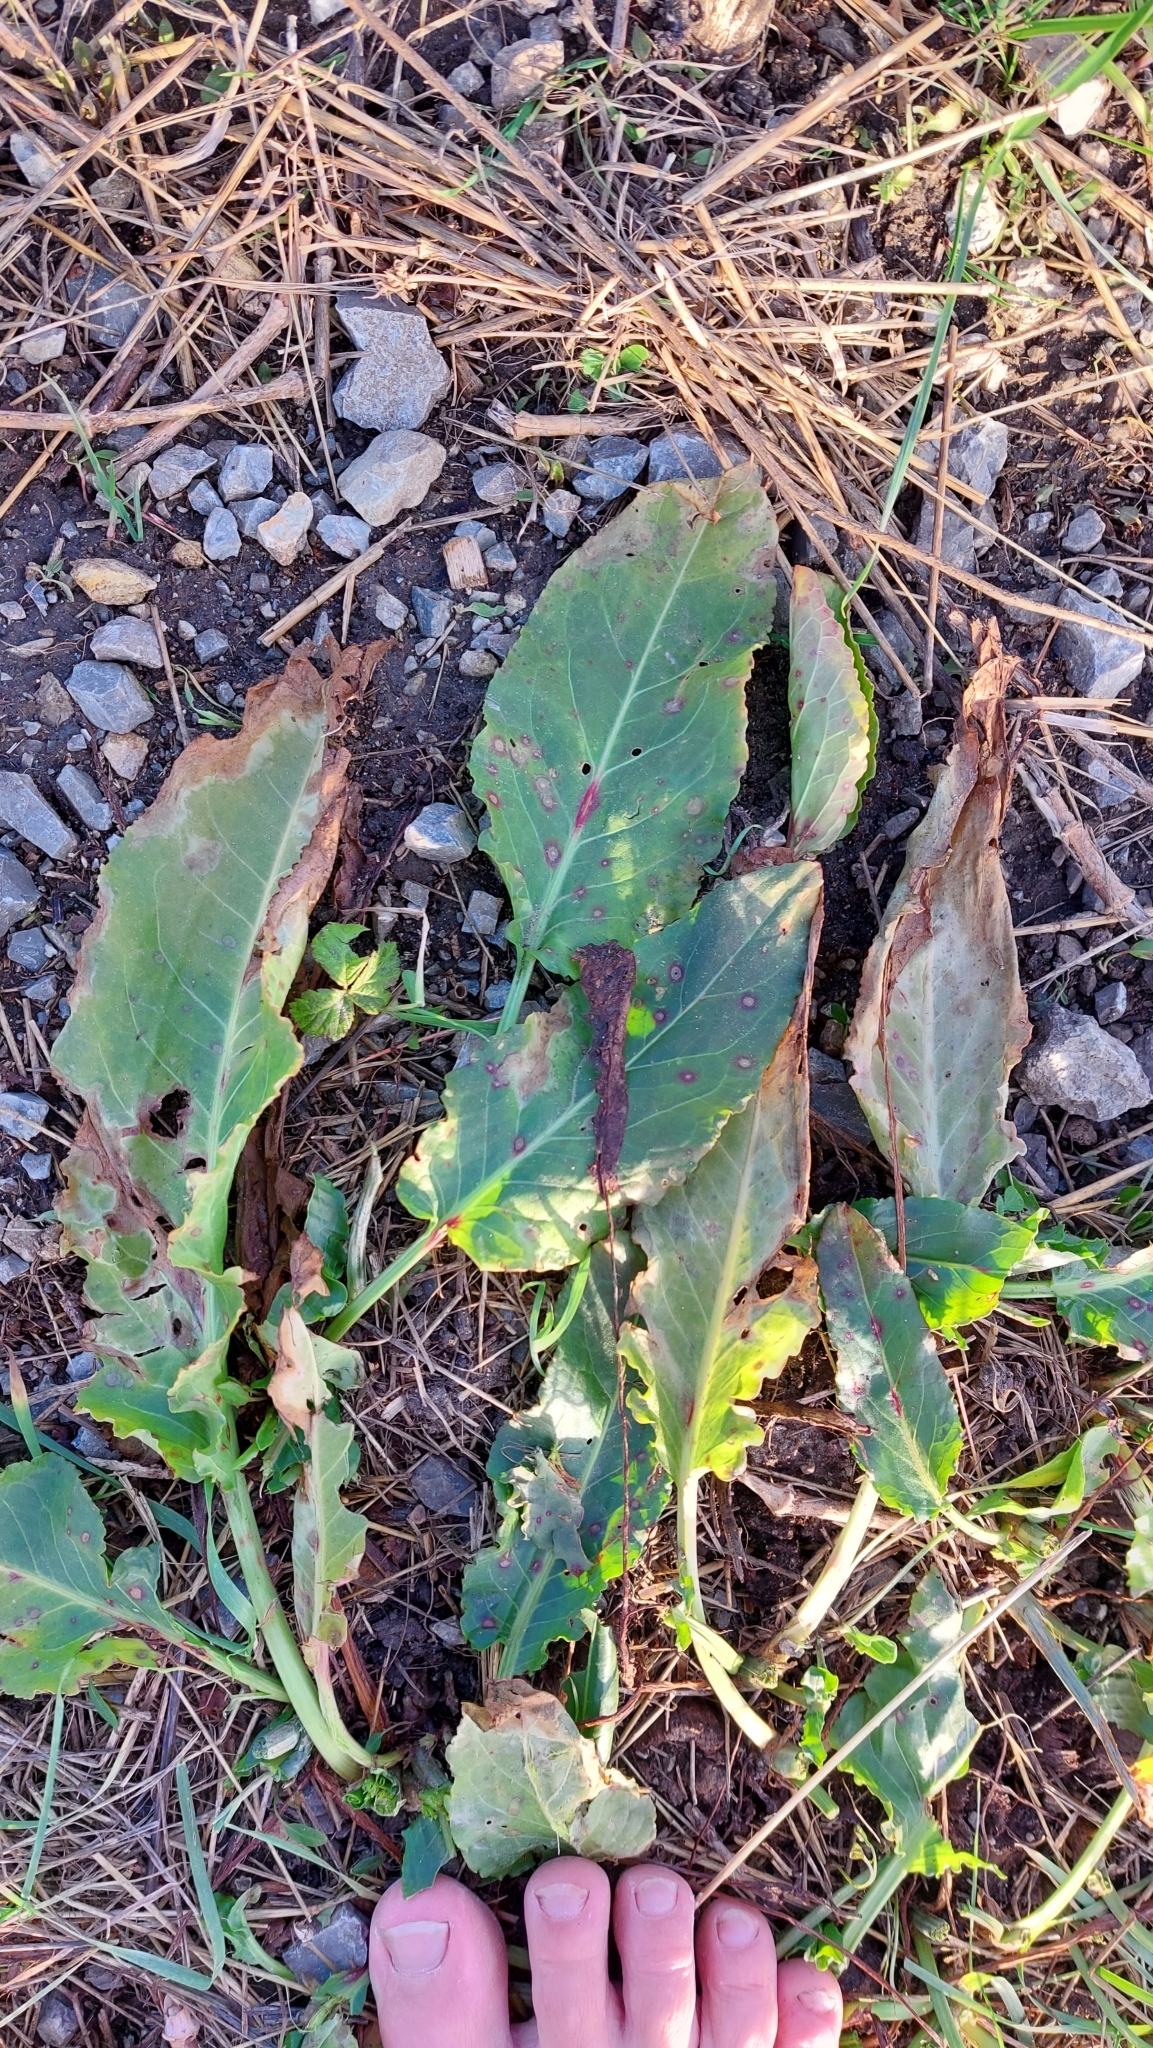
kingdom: Plantae
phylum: Tracheophyta
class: Magnoliopsida
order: Caryophyllales
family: Polygonaceae
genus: Rumex
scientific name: Rumex obtusifolius
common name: Bitter dock
